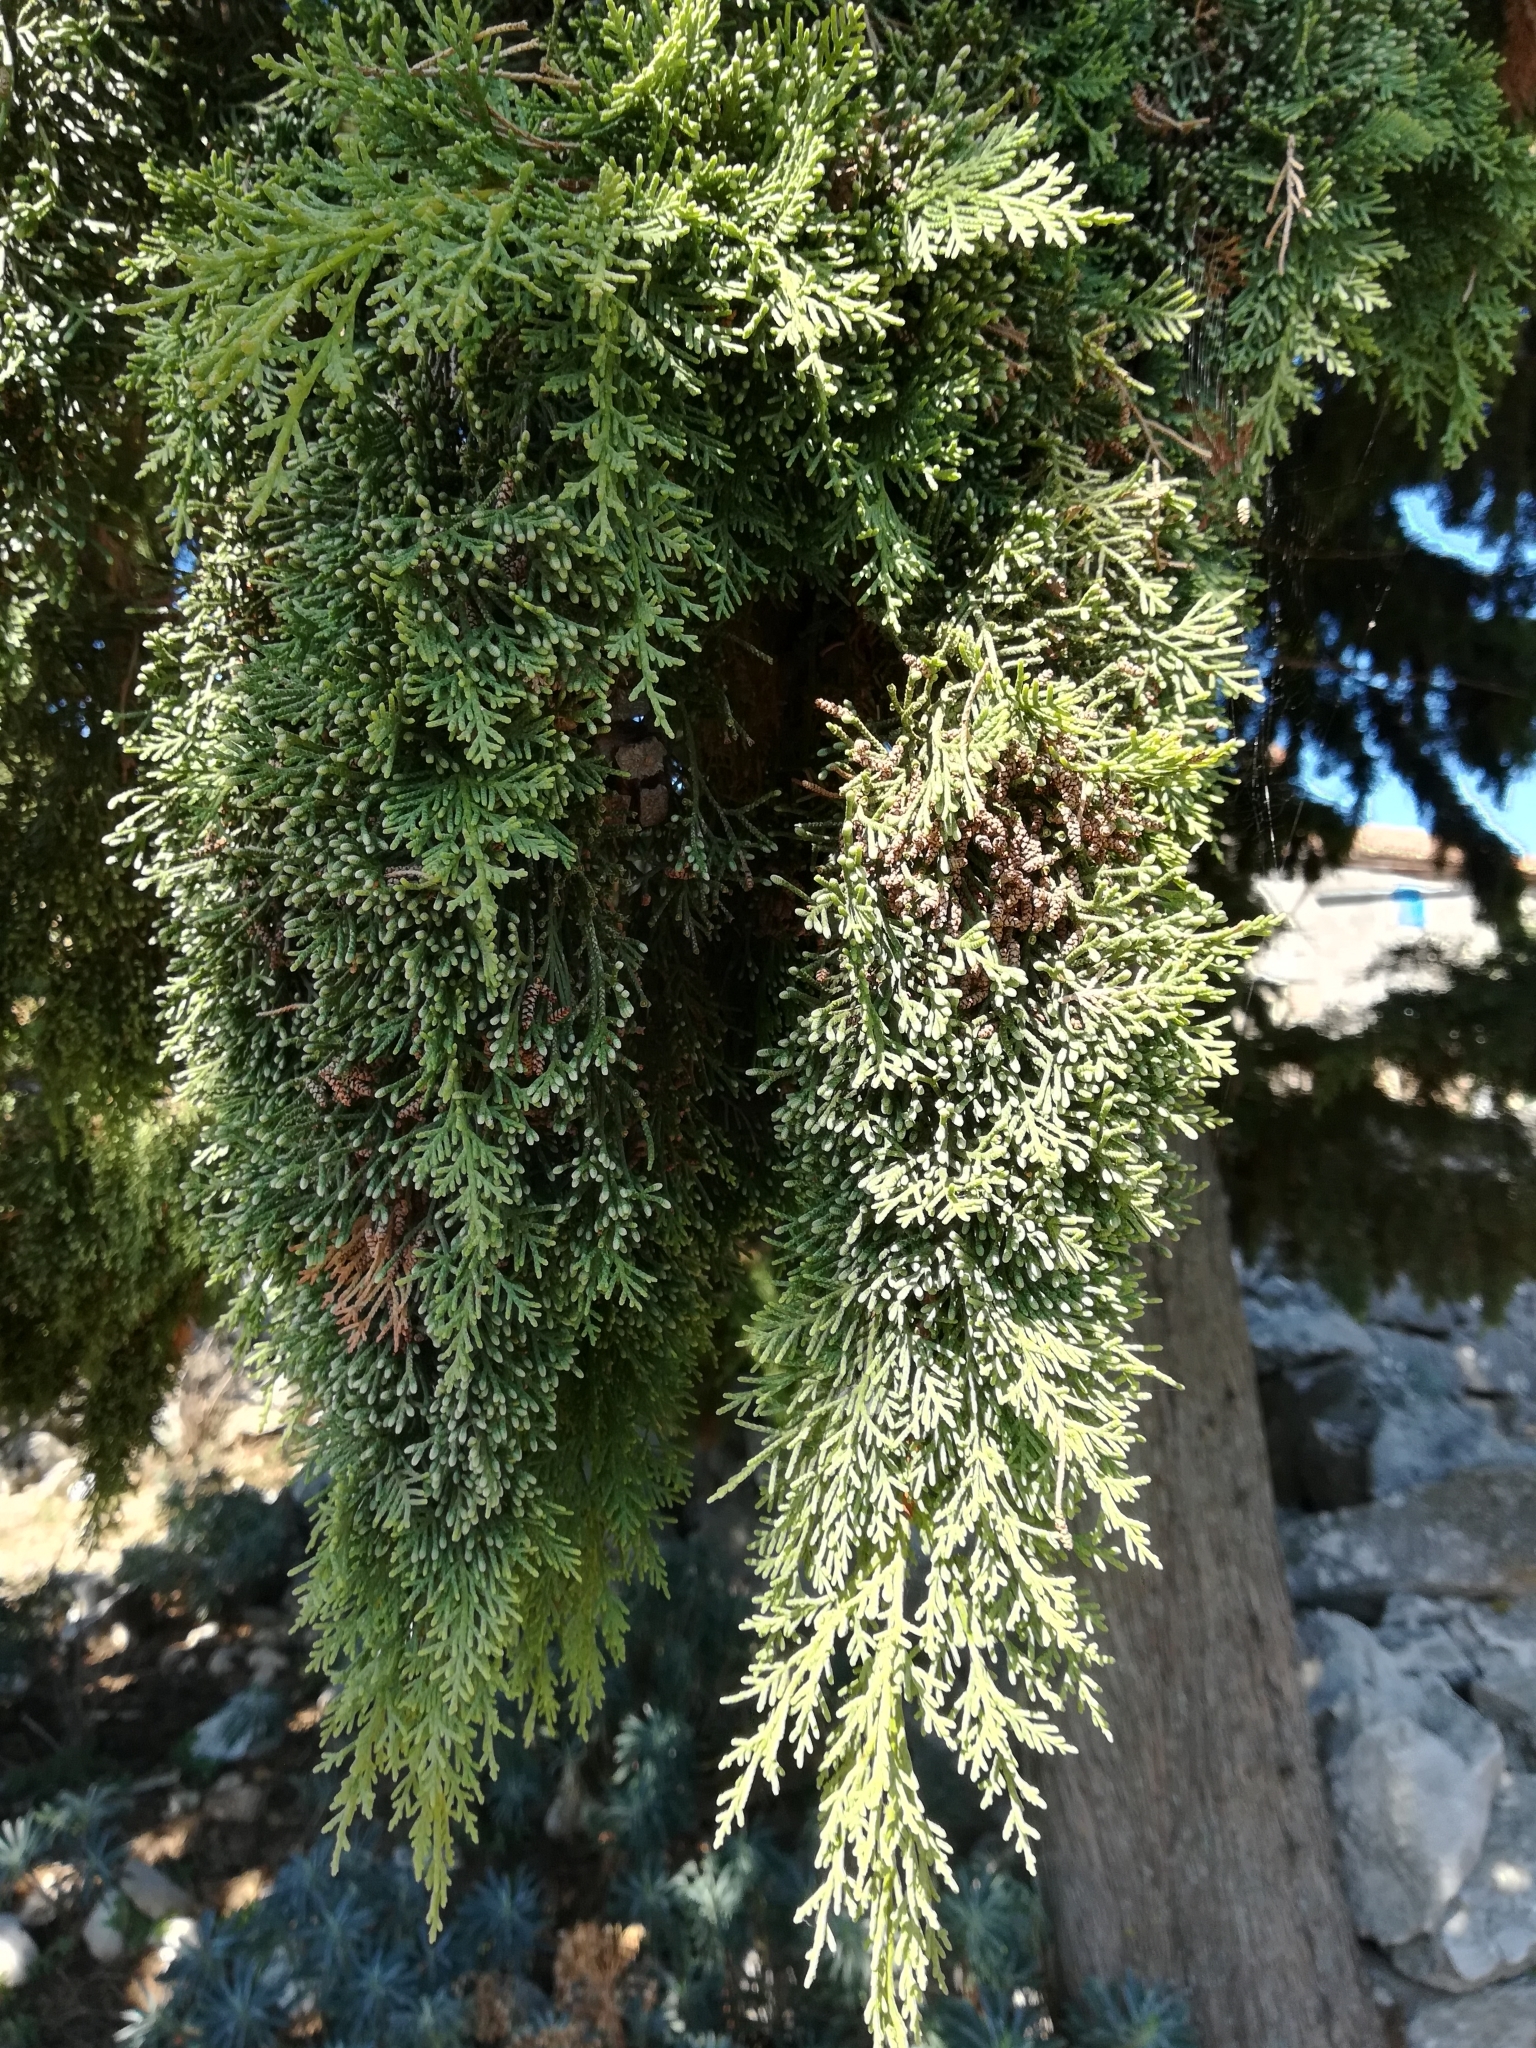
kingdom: Plantae
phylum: Tracheophyta
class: Pinopsida
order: Pinales
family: Cupressaceae
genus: Cupressus
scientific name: Cupressus sempervirens
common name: Italian cypress
